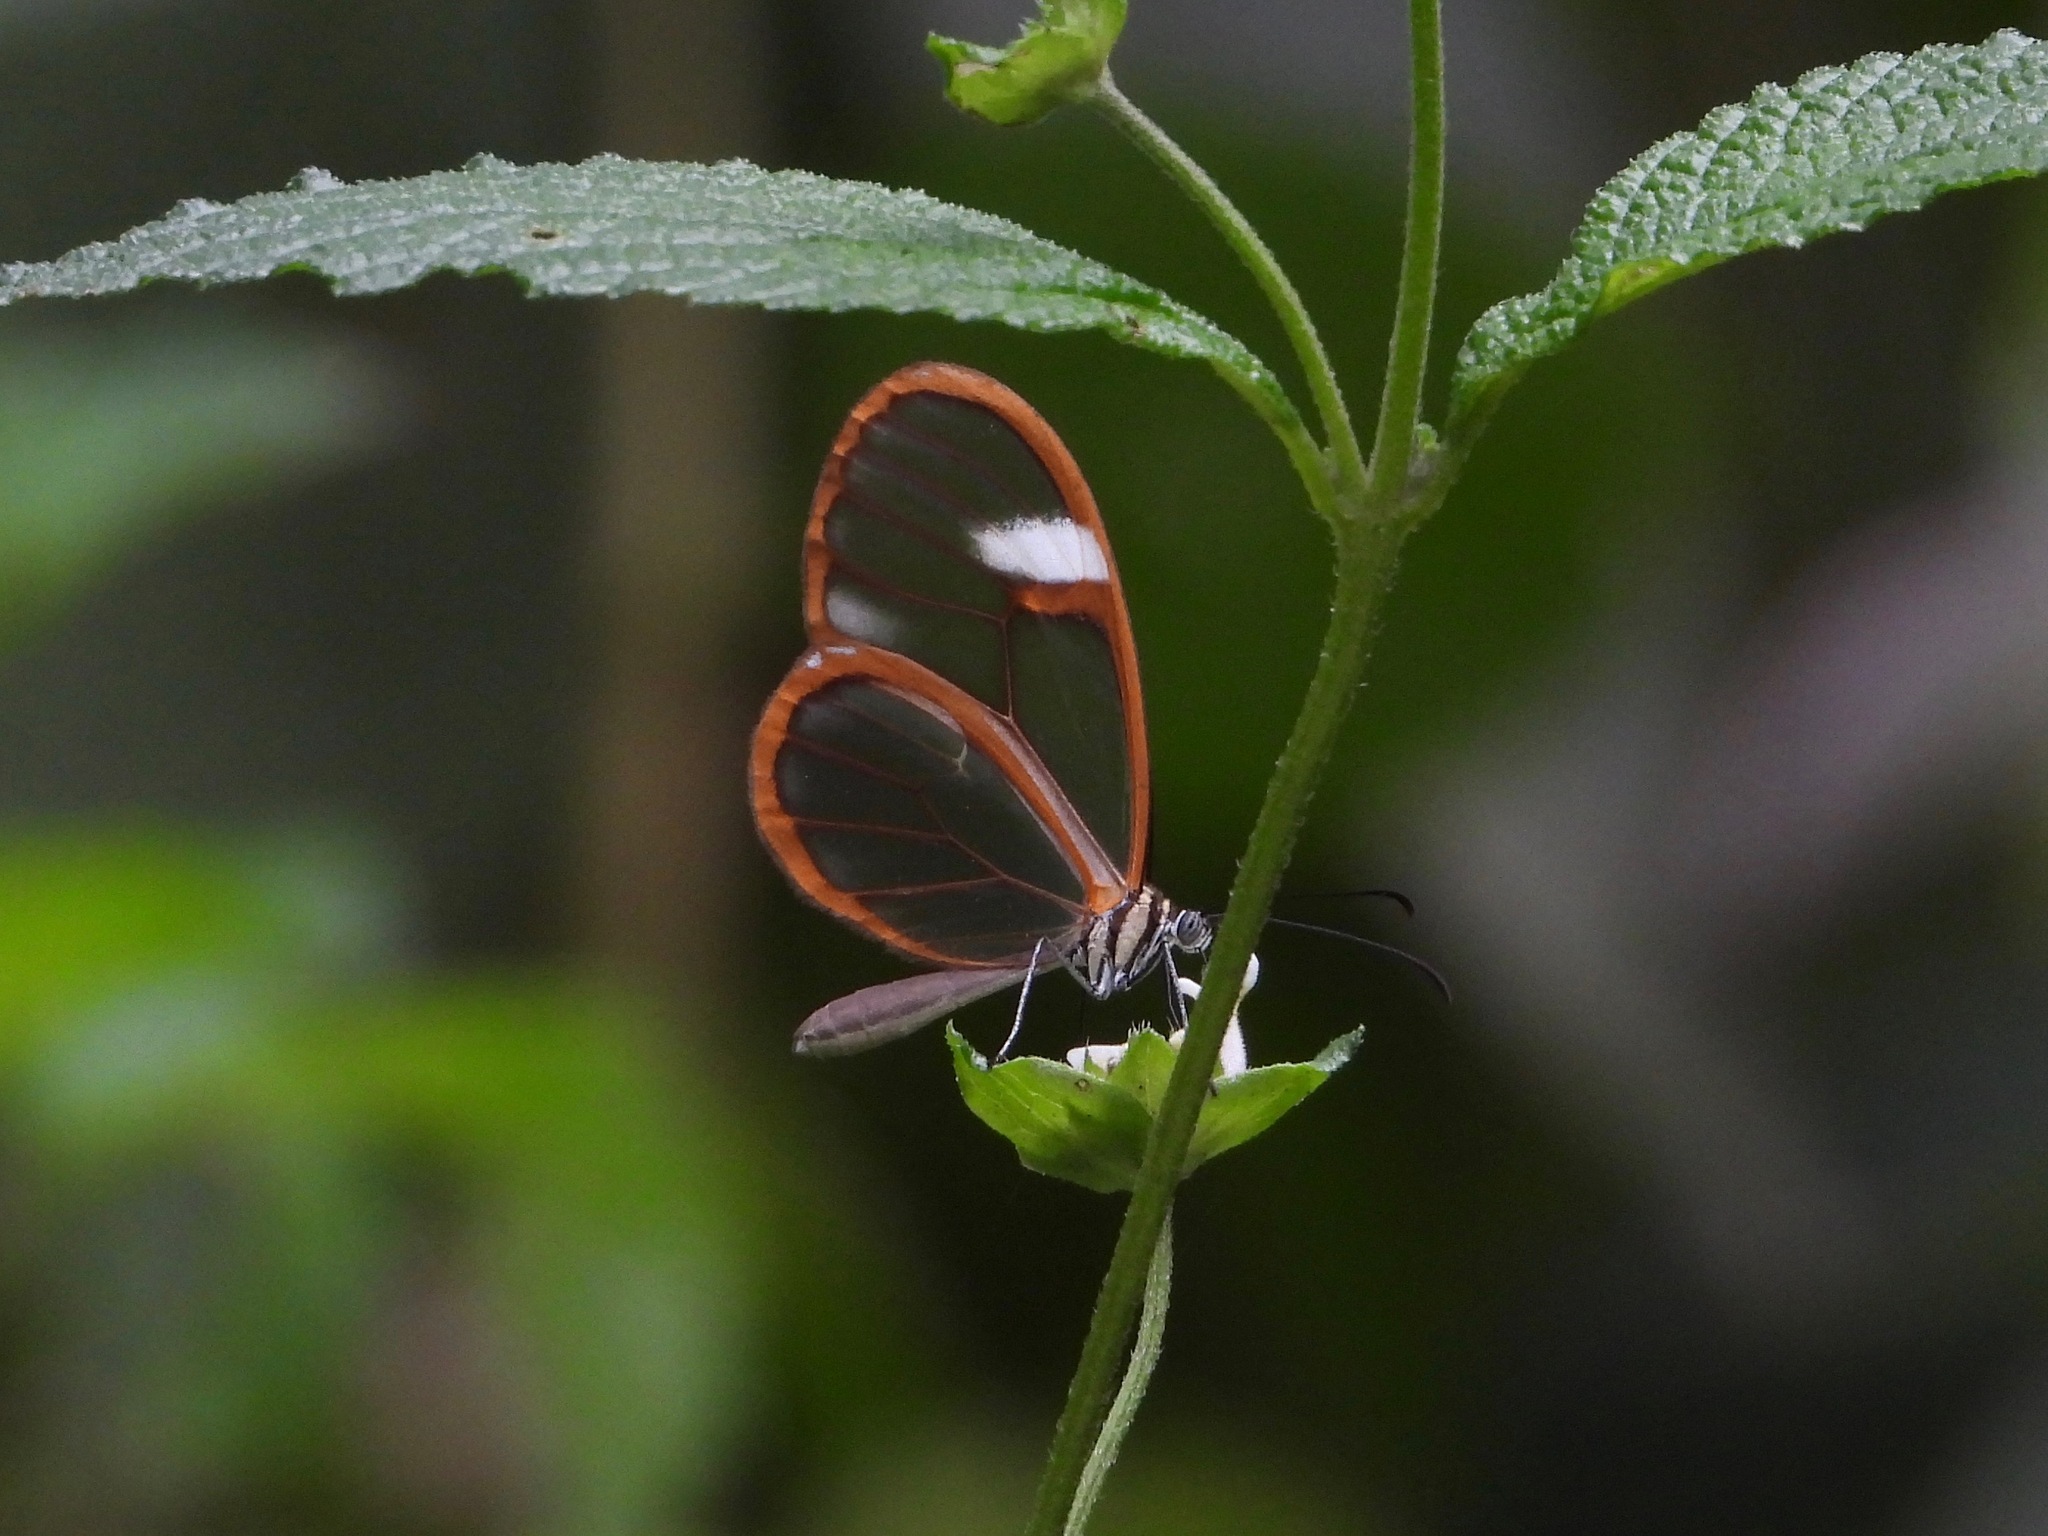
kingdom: Animalia
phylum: Arthropoda
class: Insecta
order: Lepidoptera
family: Nymphalidae
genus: Episcada
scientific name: Episcada salvinia
